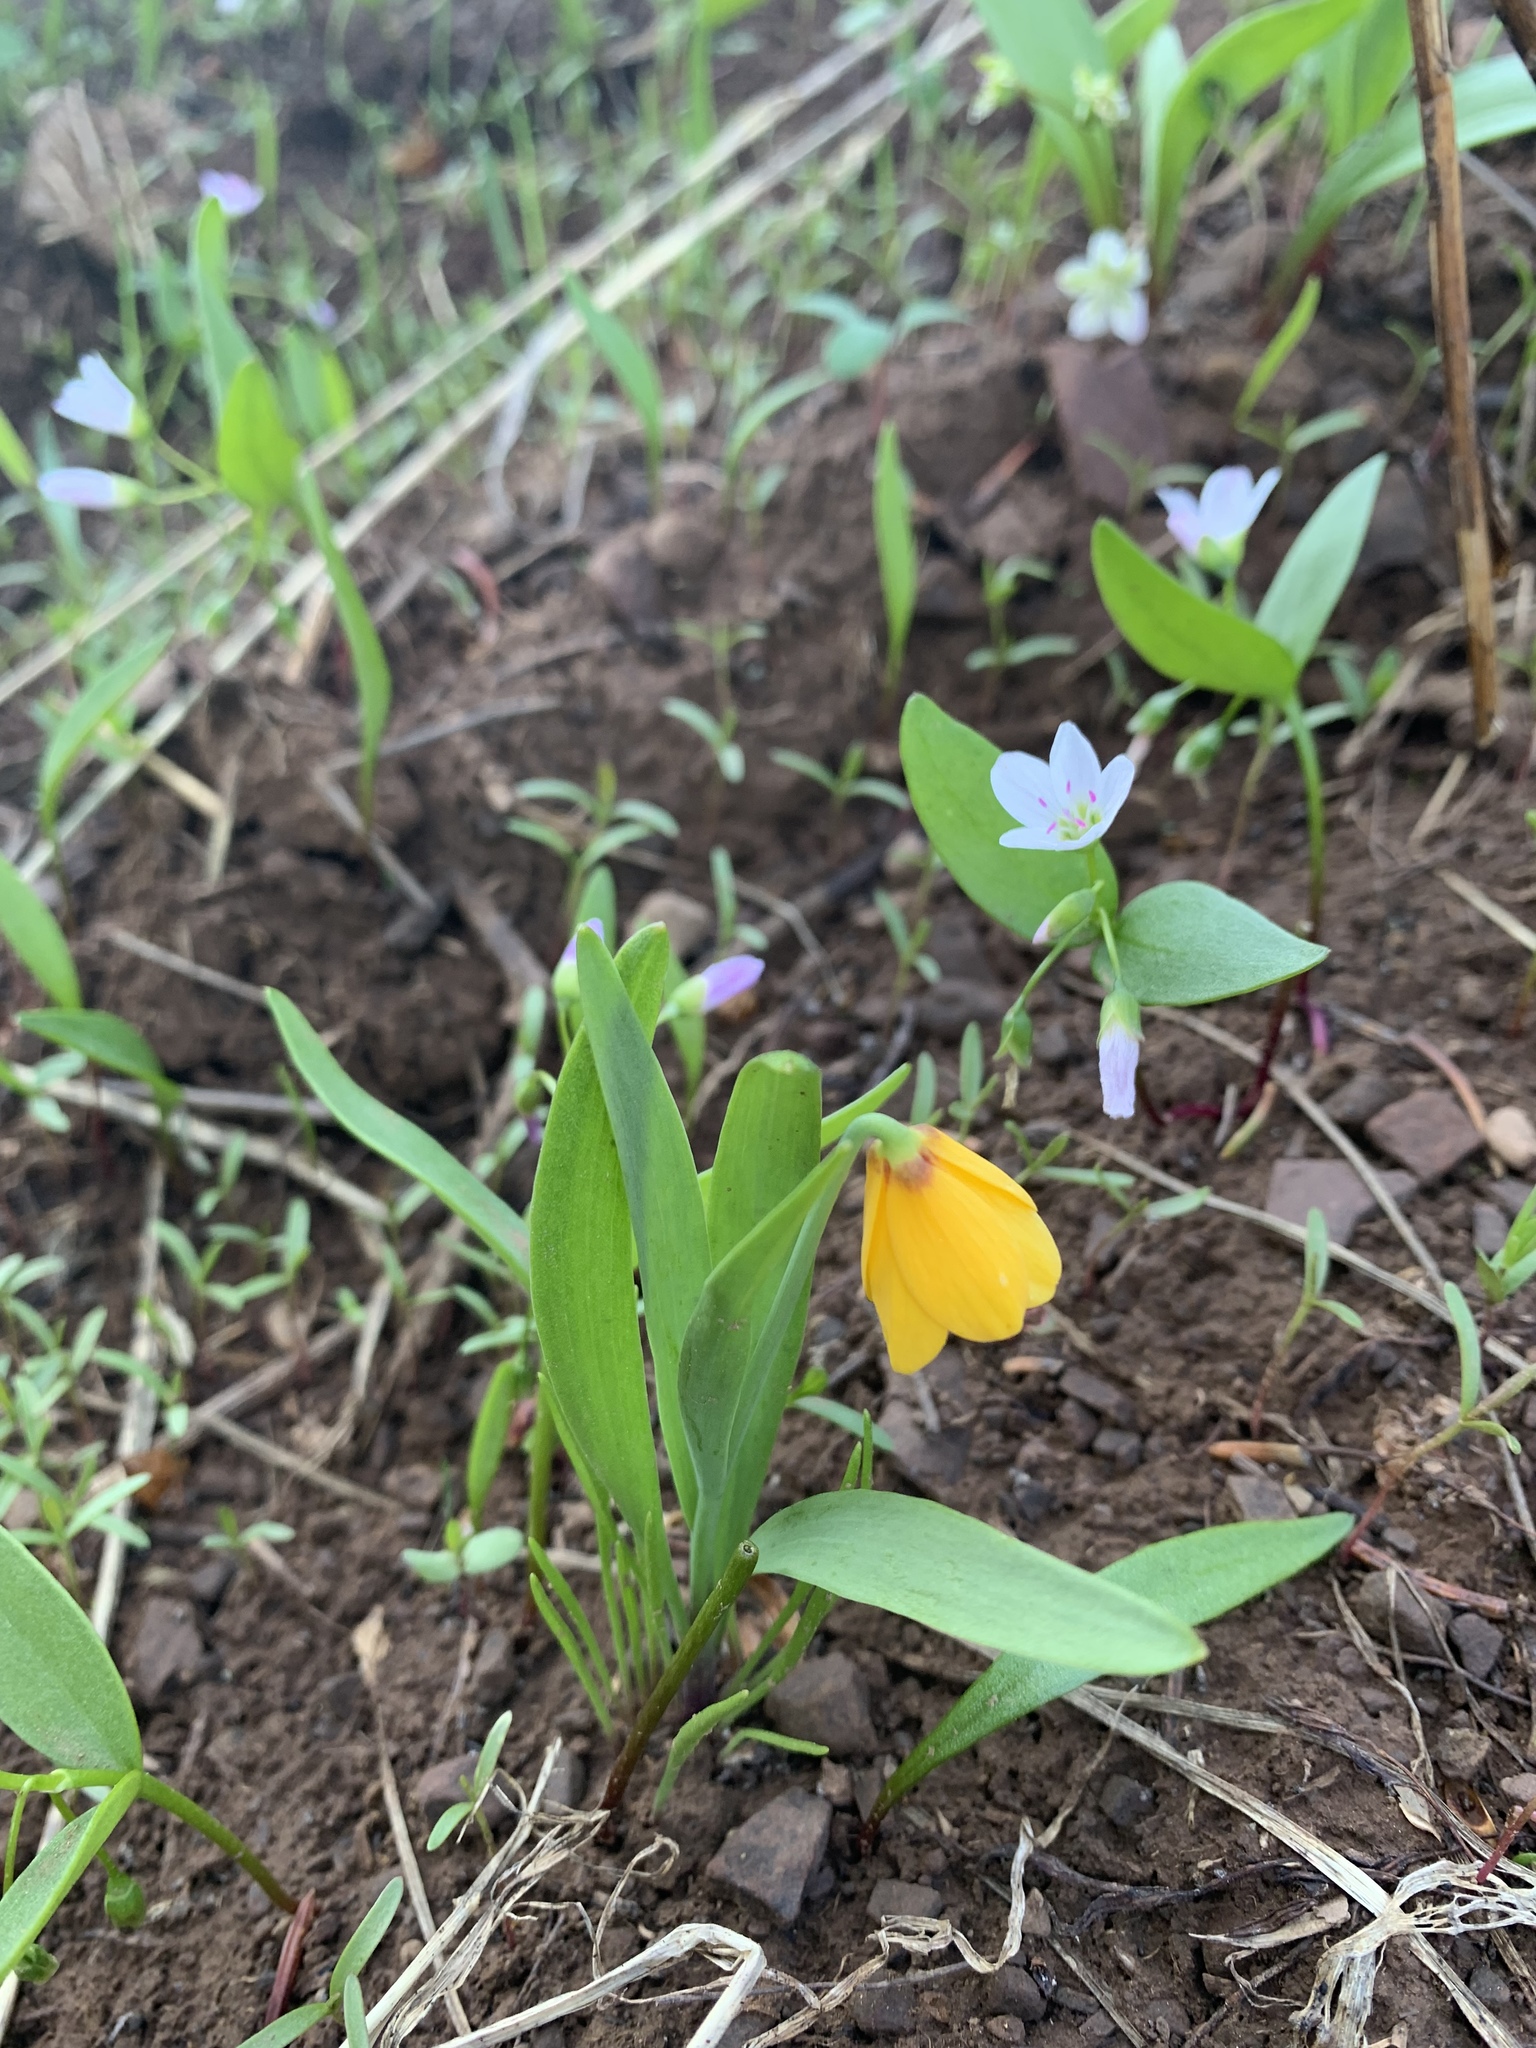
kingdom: Plantae
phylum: Tracheophyta
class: Liliopsida
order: Liliales
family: Liliaceae
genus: Fritillaria
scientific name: Fritillaria pudica
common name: Yellow fritillary
